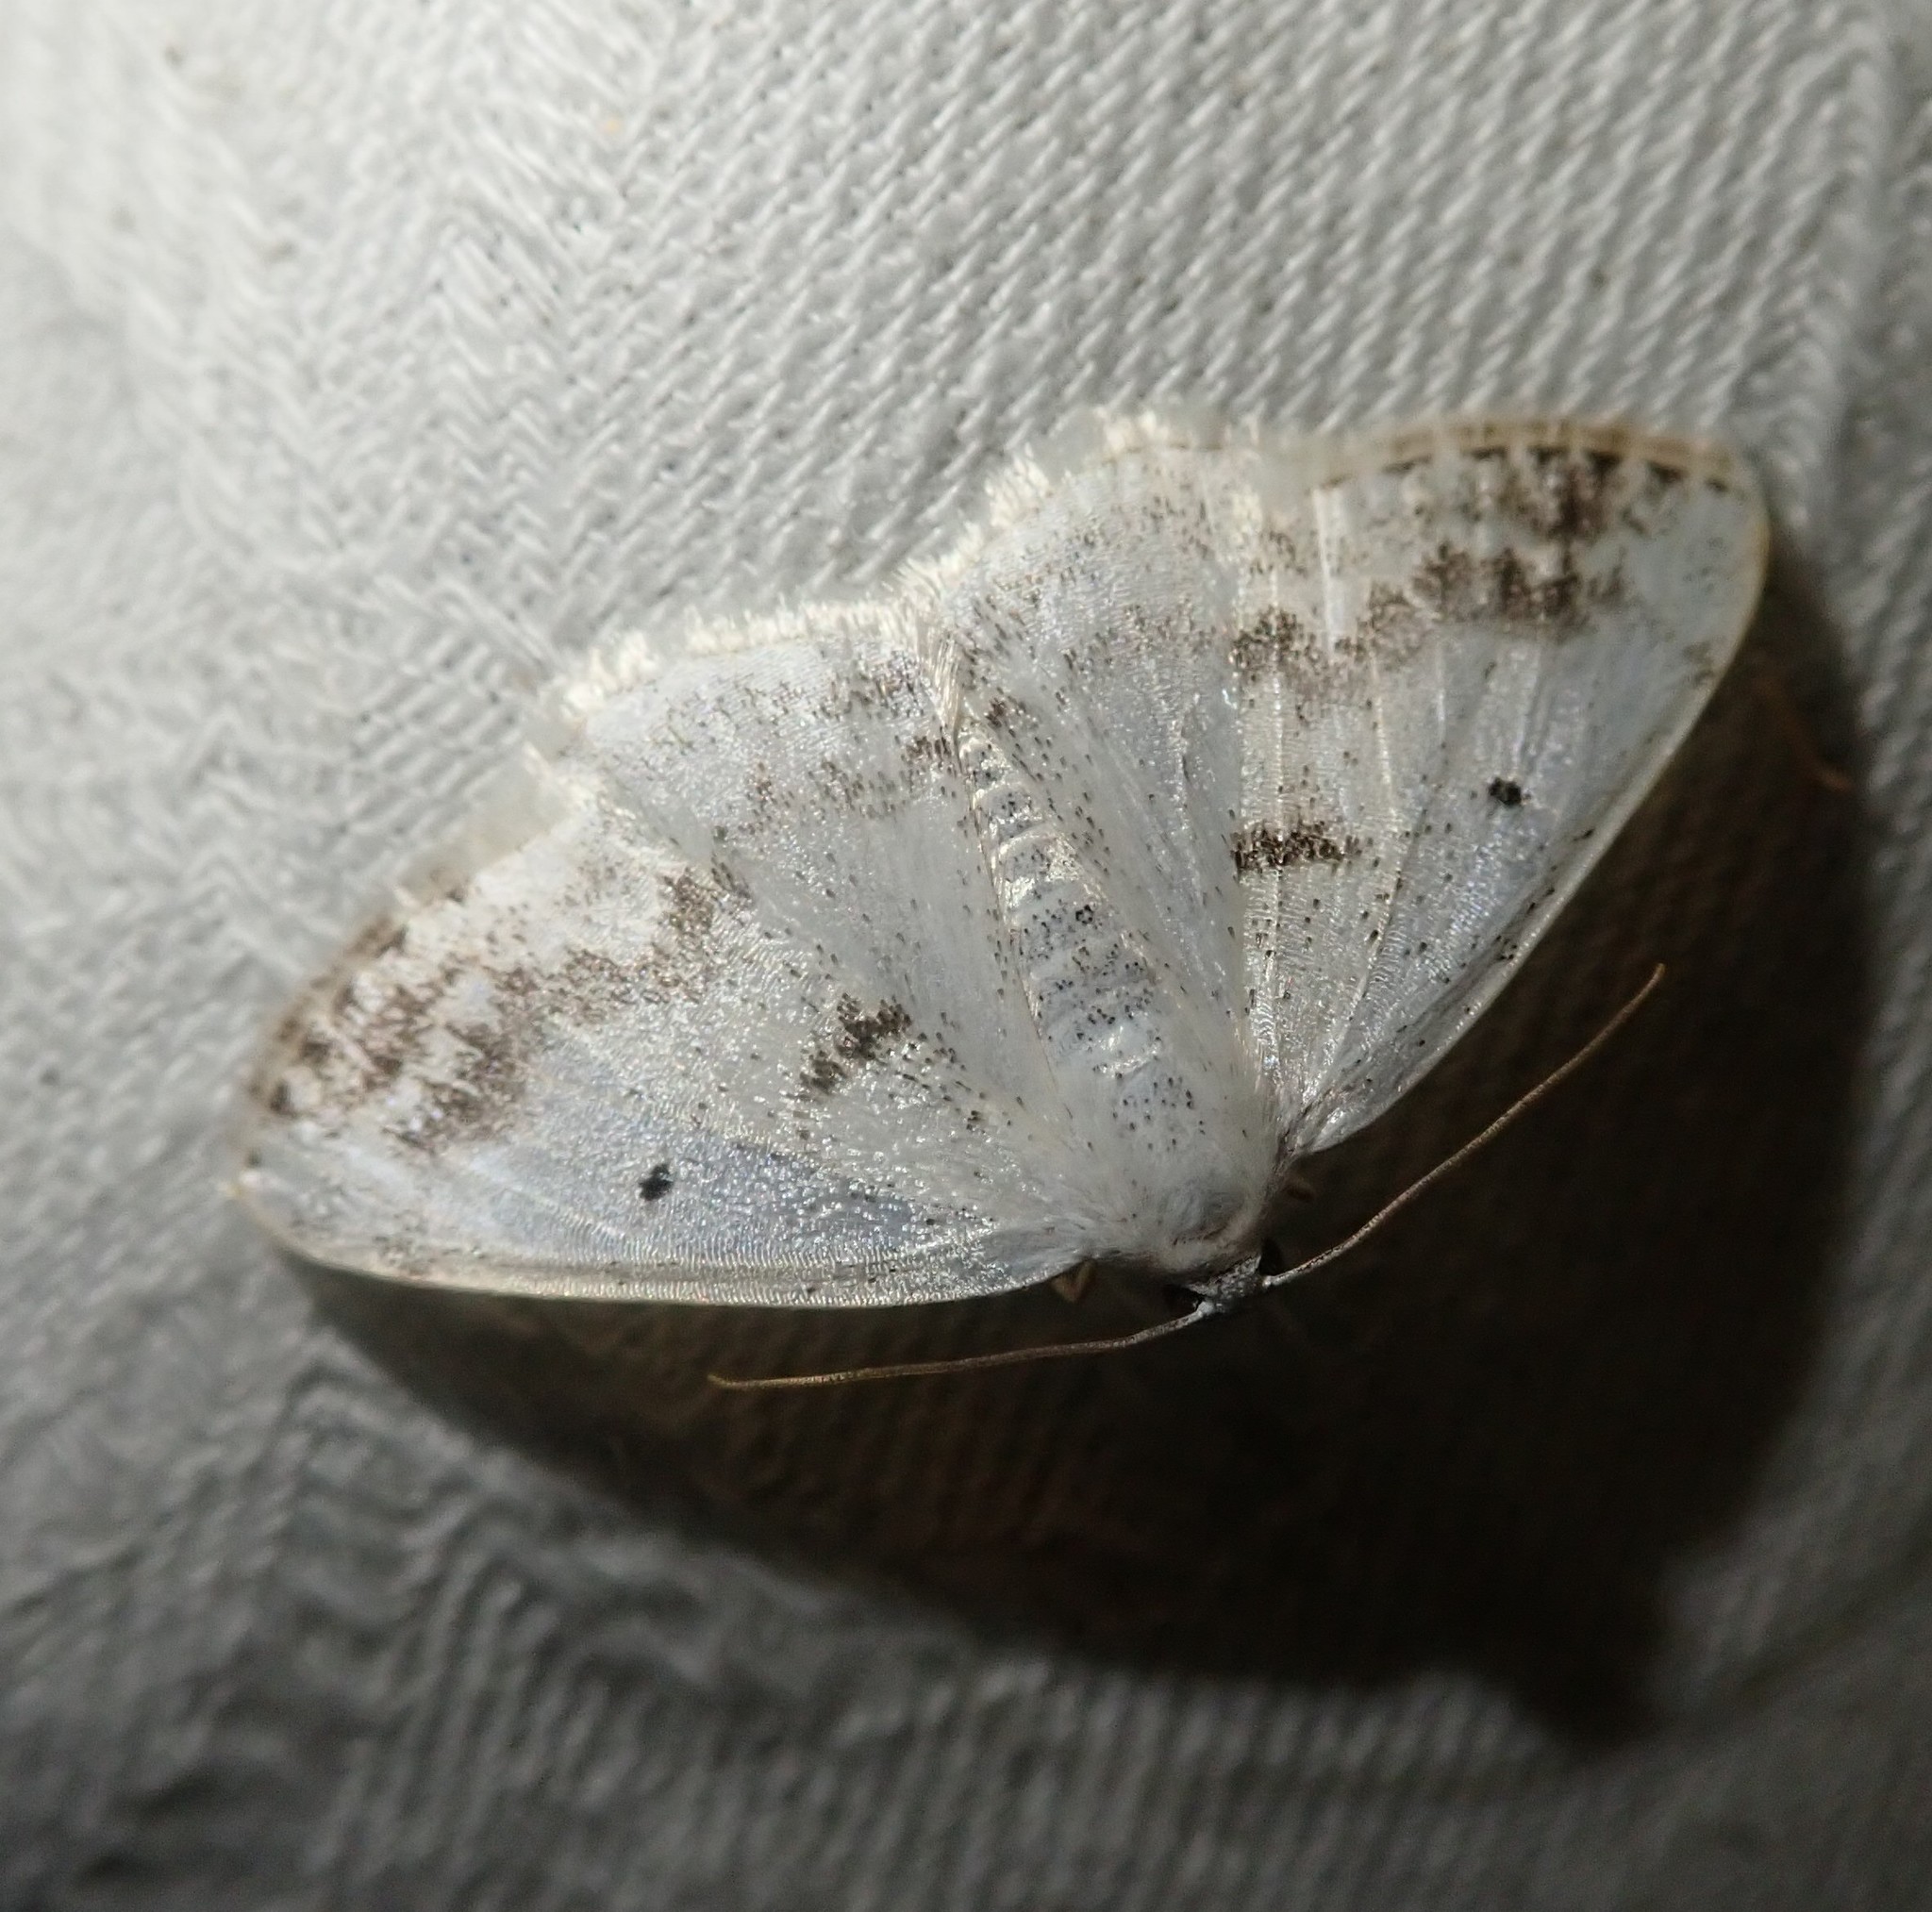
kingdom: Animalia
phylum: Arthropoda
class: Insecta
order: Lepidoptera
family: Geometridae
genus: Lomographa
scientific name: Lomographa temerata
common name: Clouded silver
